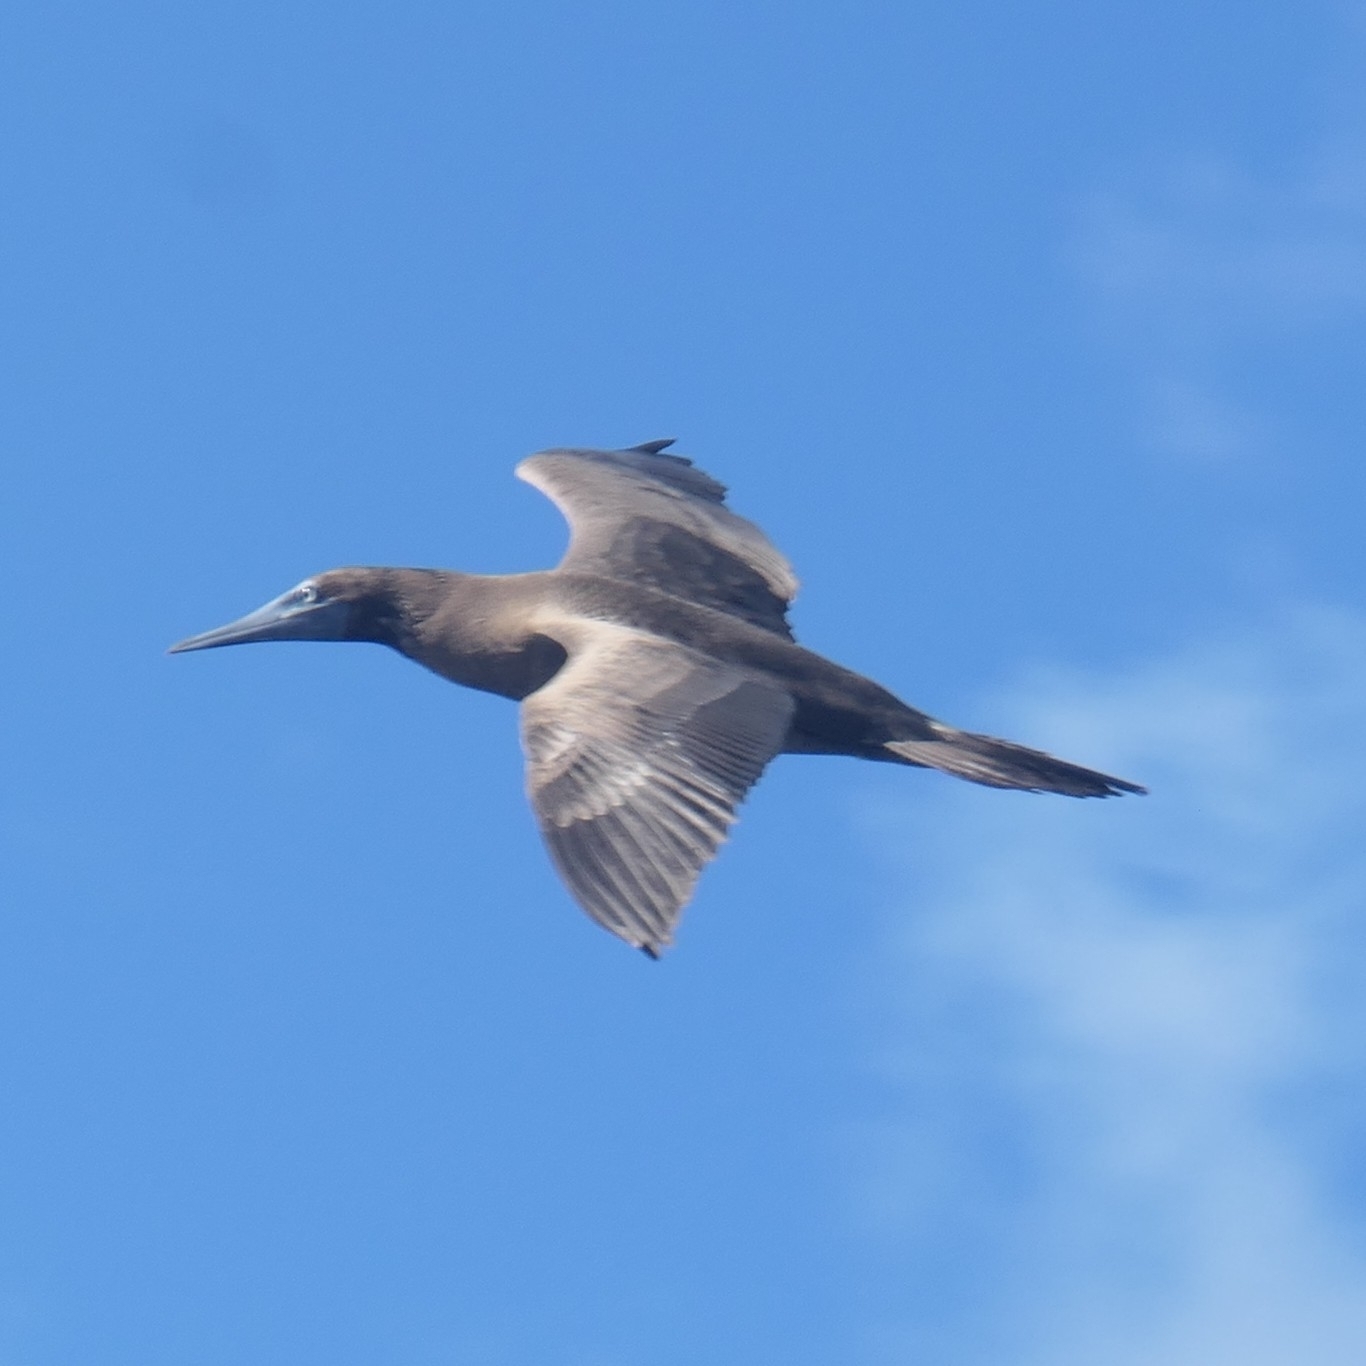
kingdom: Animalia
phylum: Chordata
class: Aves
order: Suliformes
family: Sulidae
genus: Sula
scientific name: Sula leucogaster
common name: Brown booby
